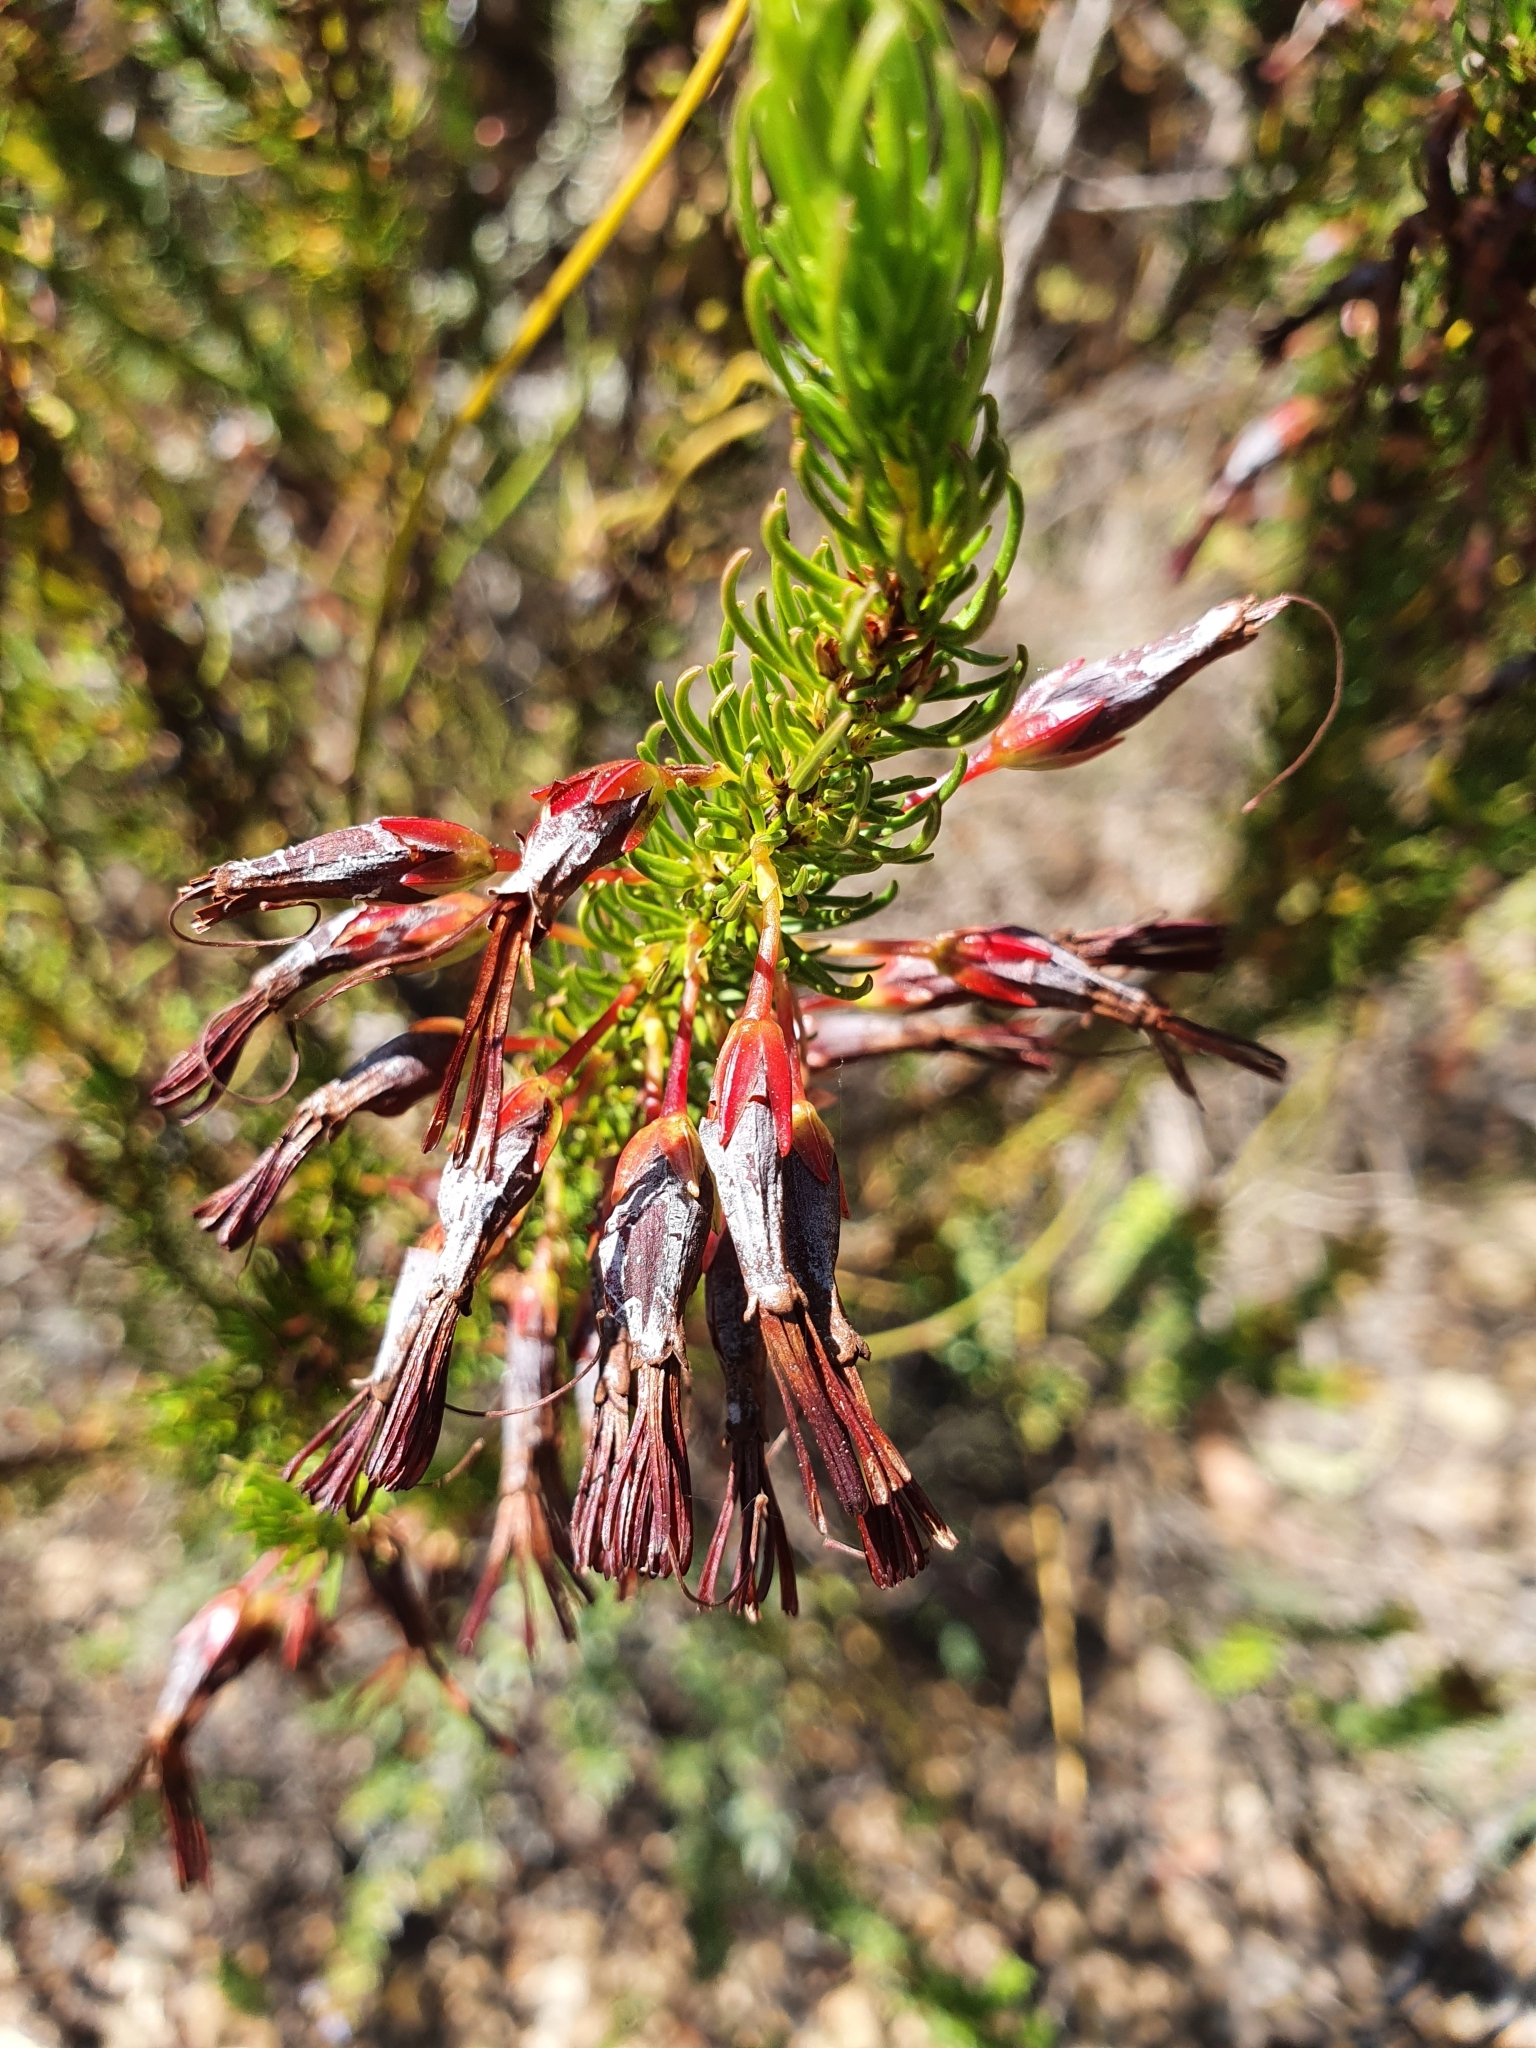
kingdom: Plantae
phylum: Tracheophyta
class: Magnoliopsida
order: Ericales
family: Ericaceae
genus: Erica
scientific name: Erica plukenetii
